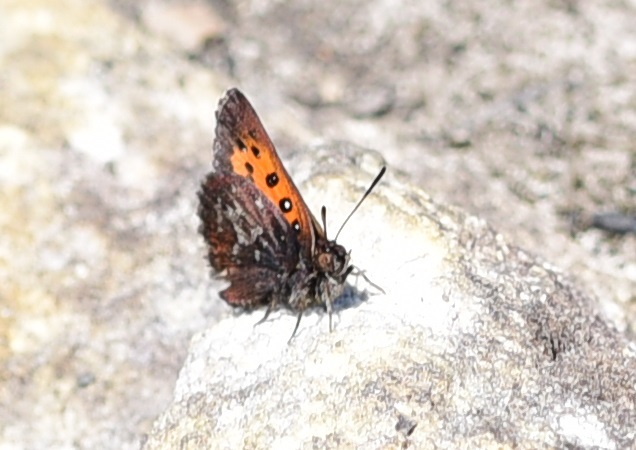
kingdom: Animalia
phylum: Arthropoda
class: Insecta
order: Lepidoptera
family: Lycaenidae
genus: Aloeides
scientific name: Aloeides depicta
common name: Depicta copper
